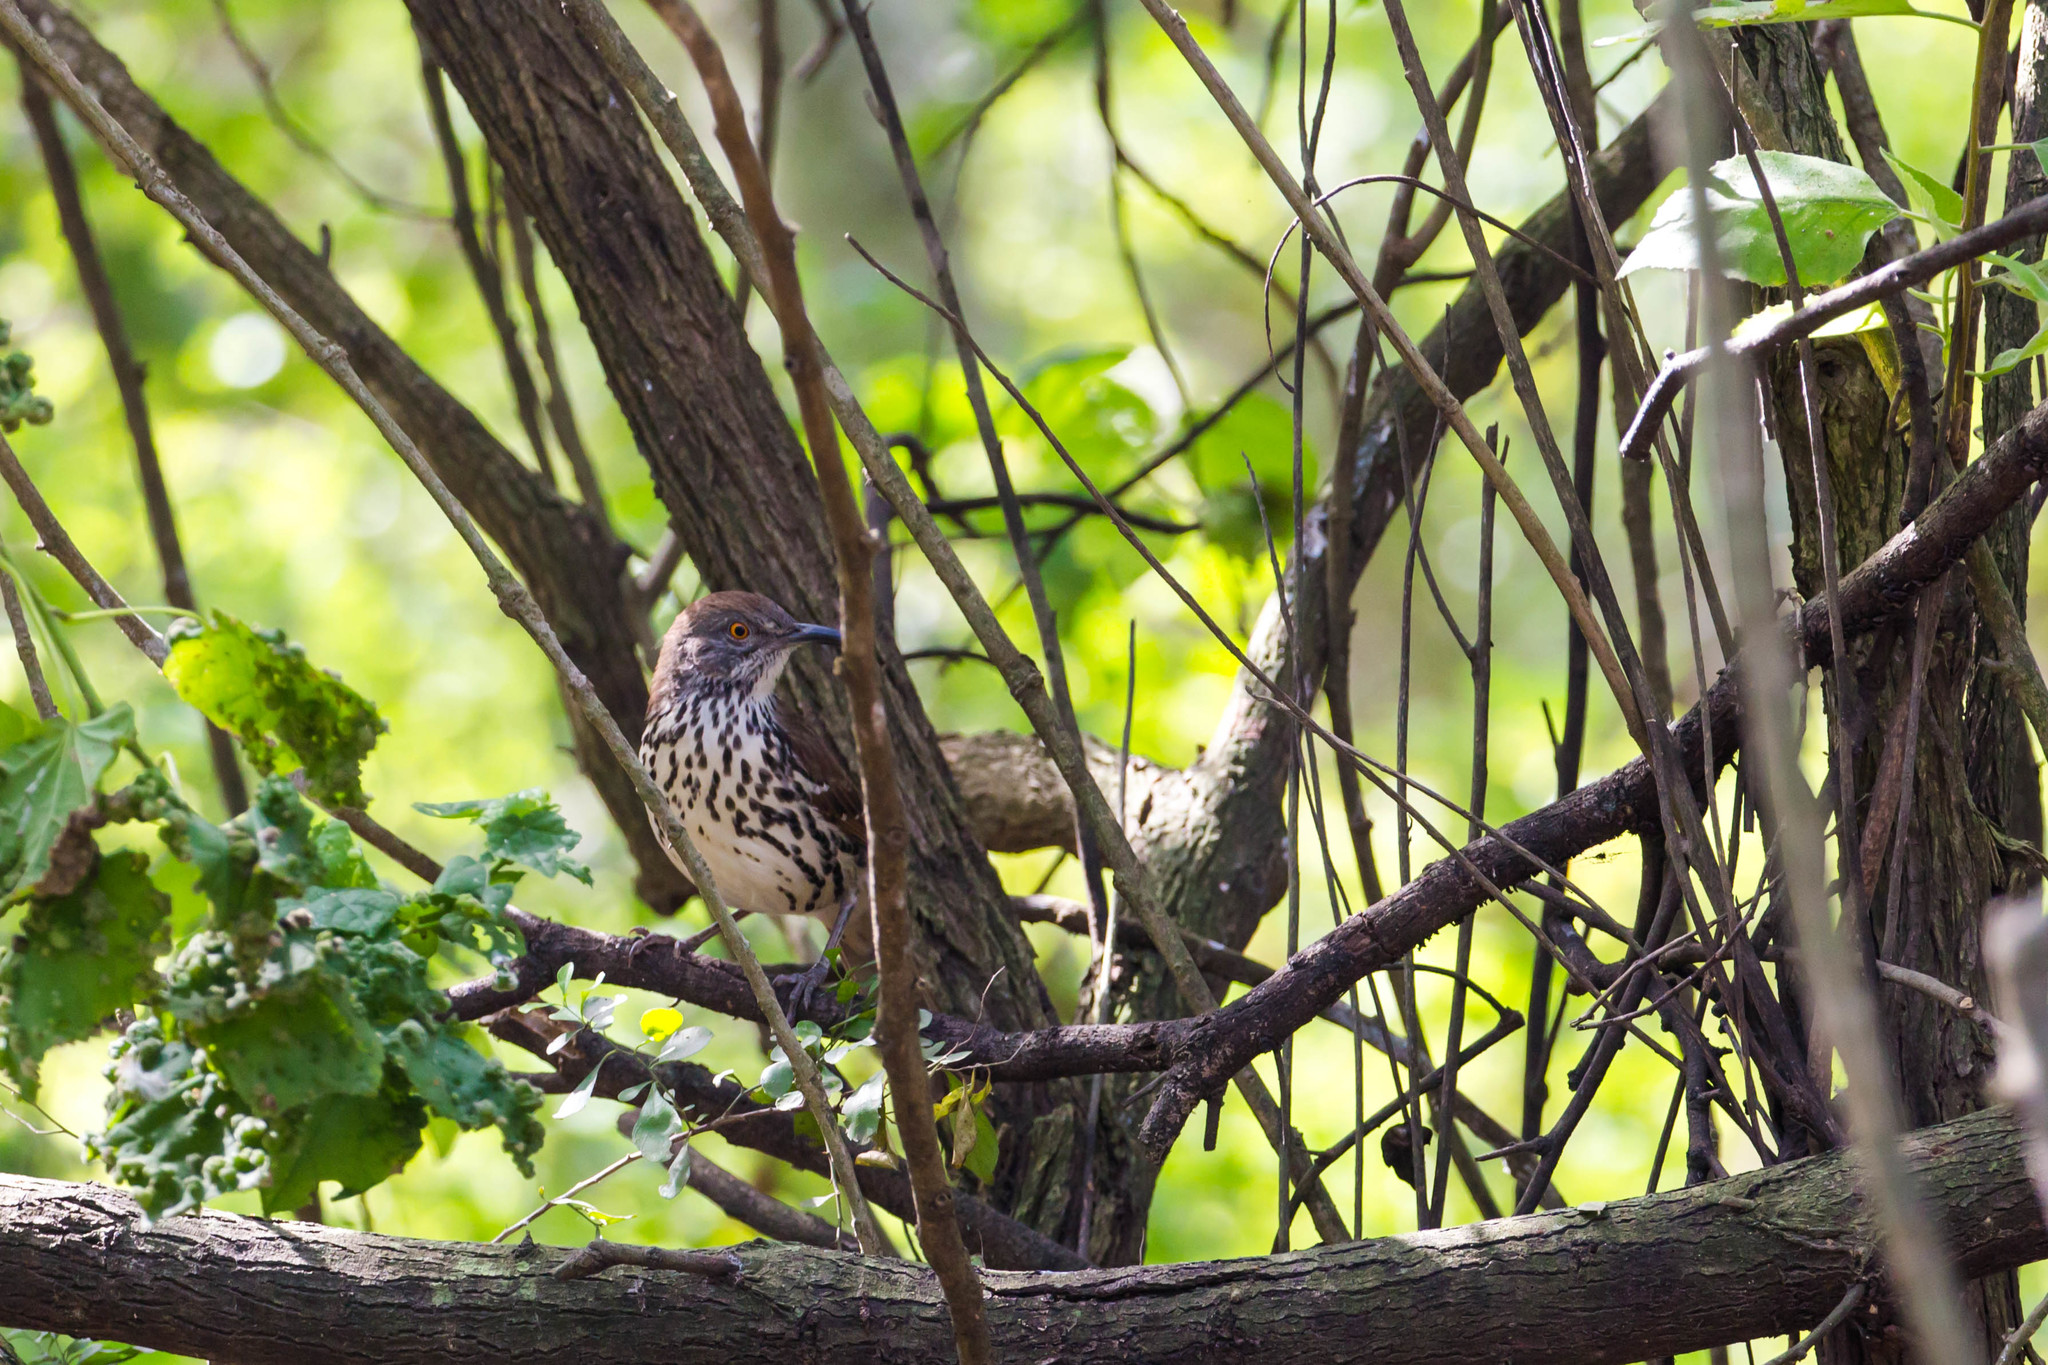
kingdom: Animalia
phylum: Chordata
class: Aves
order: Passeriformes
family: Mimidae
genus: Toxostoma
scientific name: Toxostoma longirostre
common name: Long-billed thrasher
